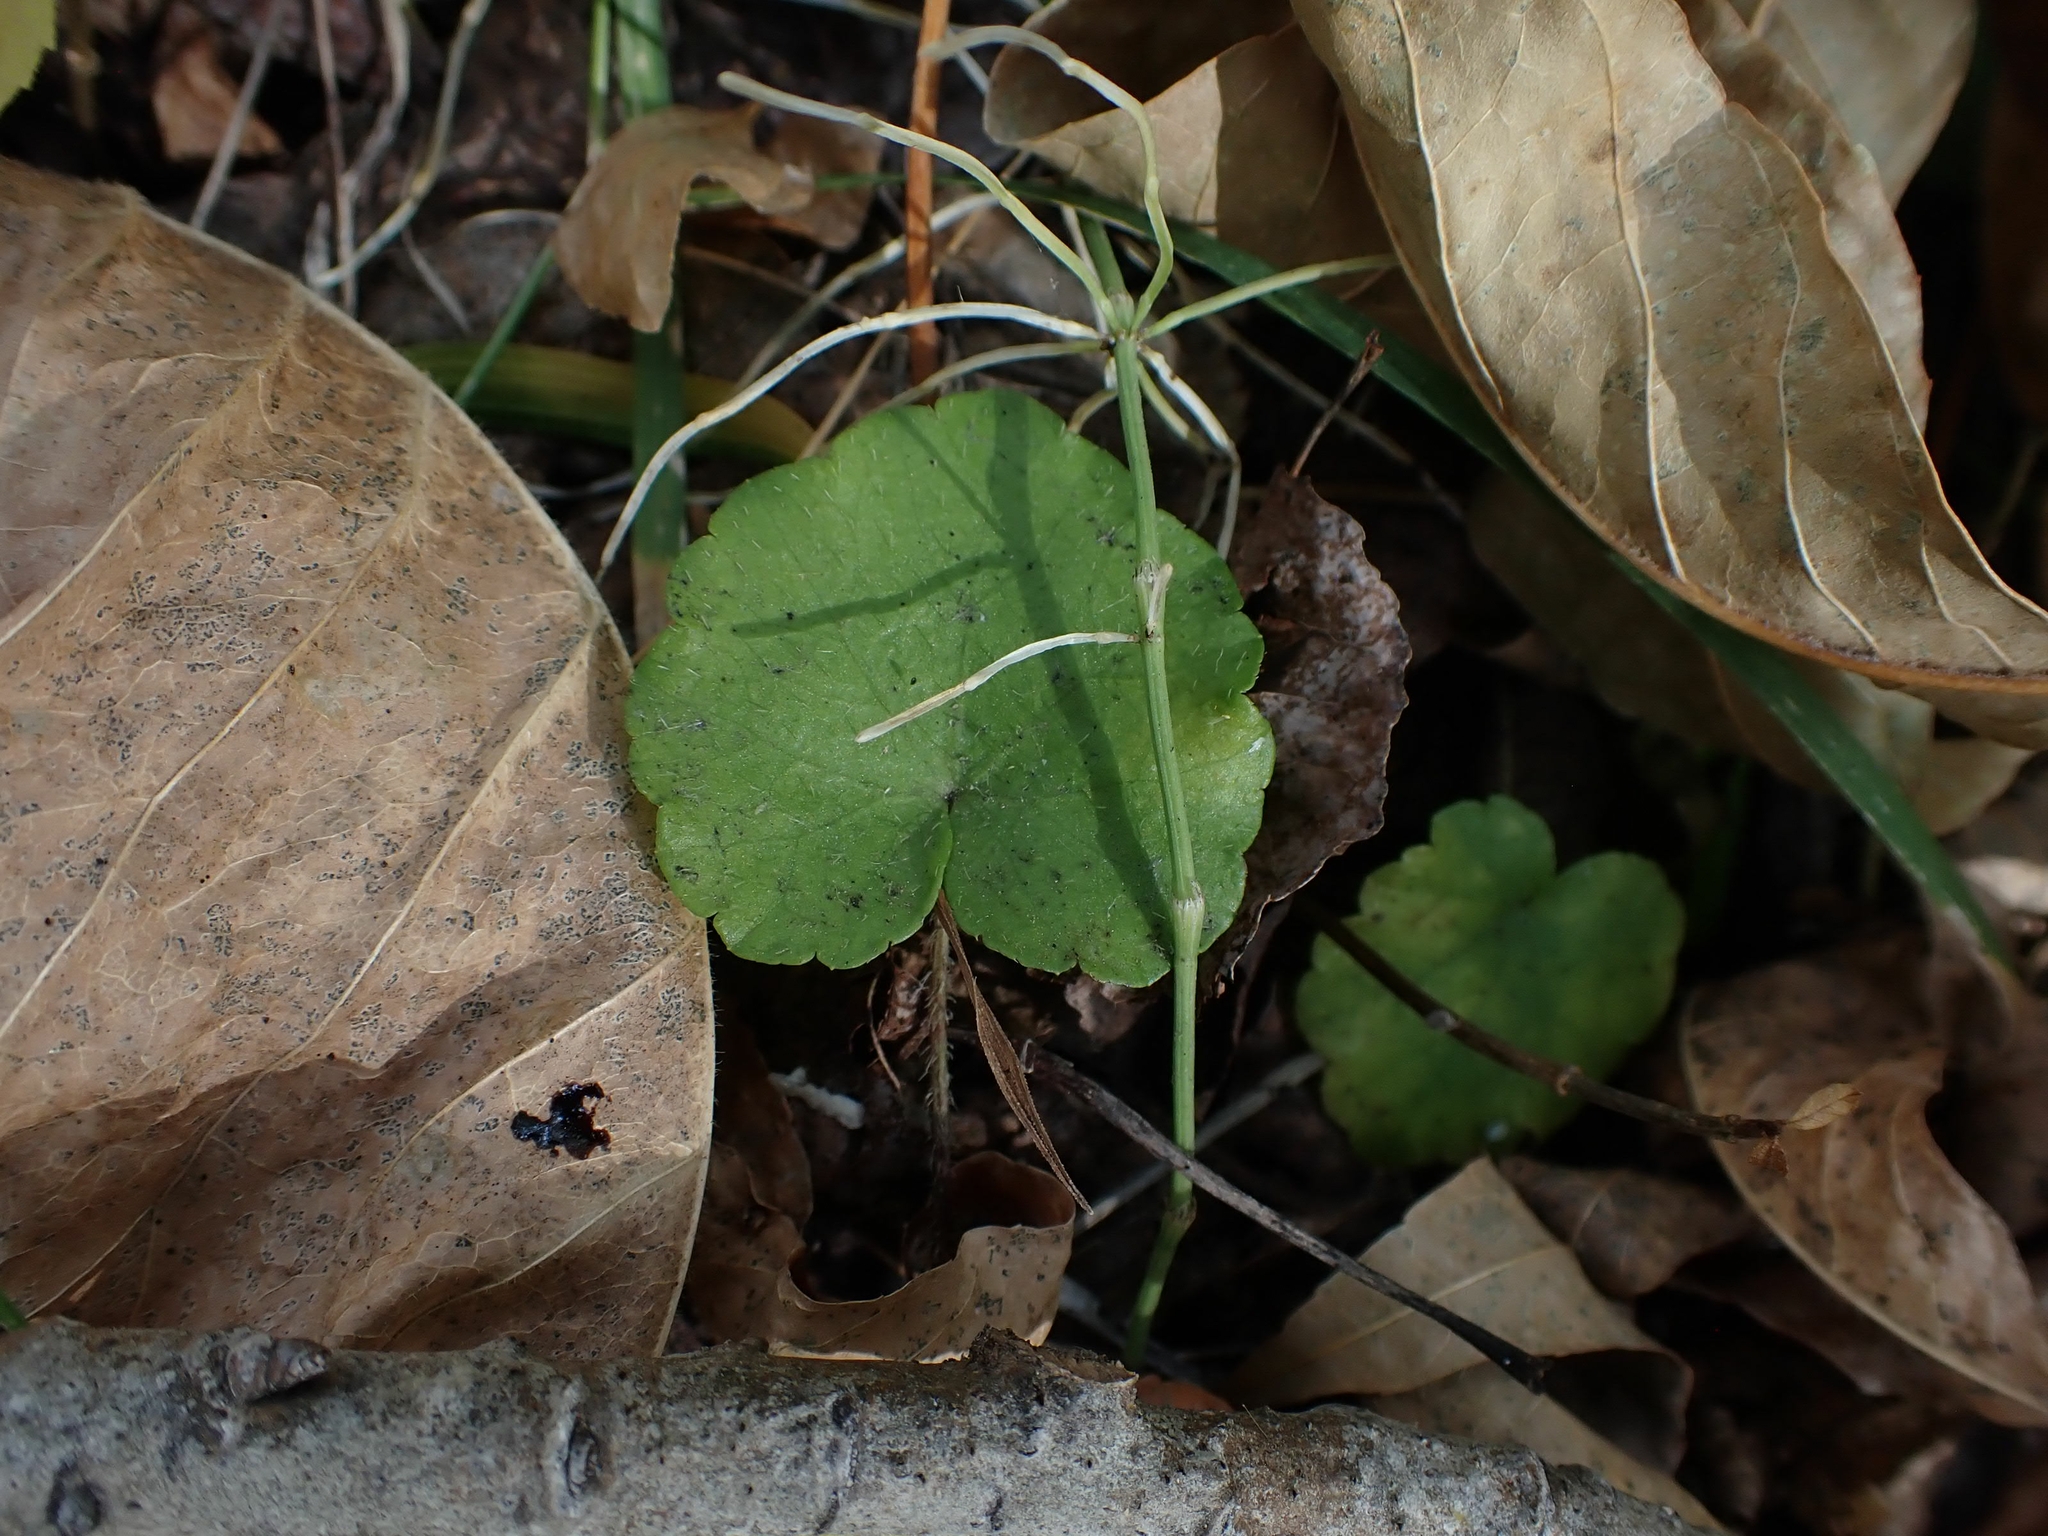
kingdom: Plantae
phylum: Tracheophyta
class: Magnoliopsida
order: Saxifragales
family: Saxifragaceae
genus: Mitella
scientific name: Mitella nuda
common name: Bare-stemmed bishop's-cap
